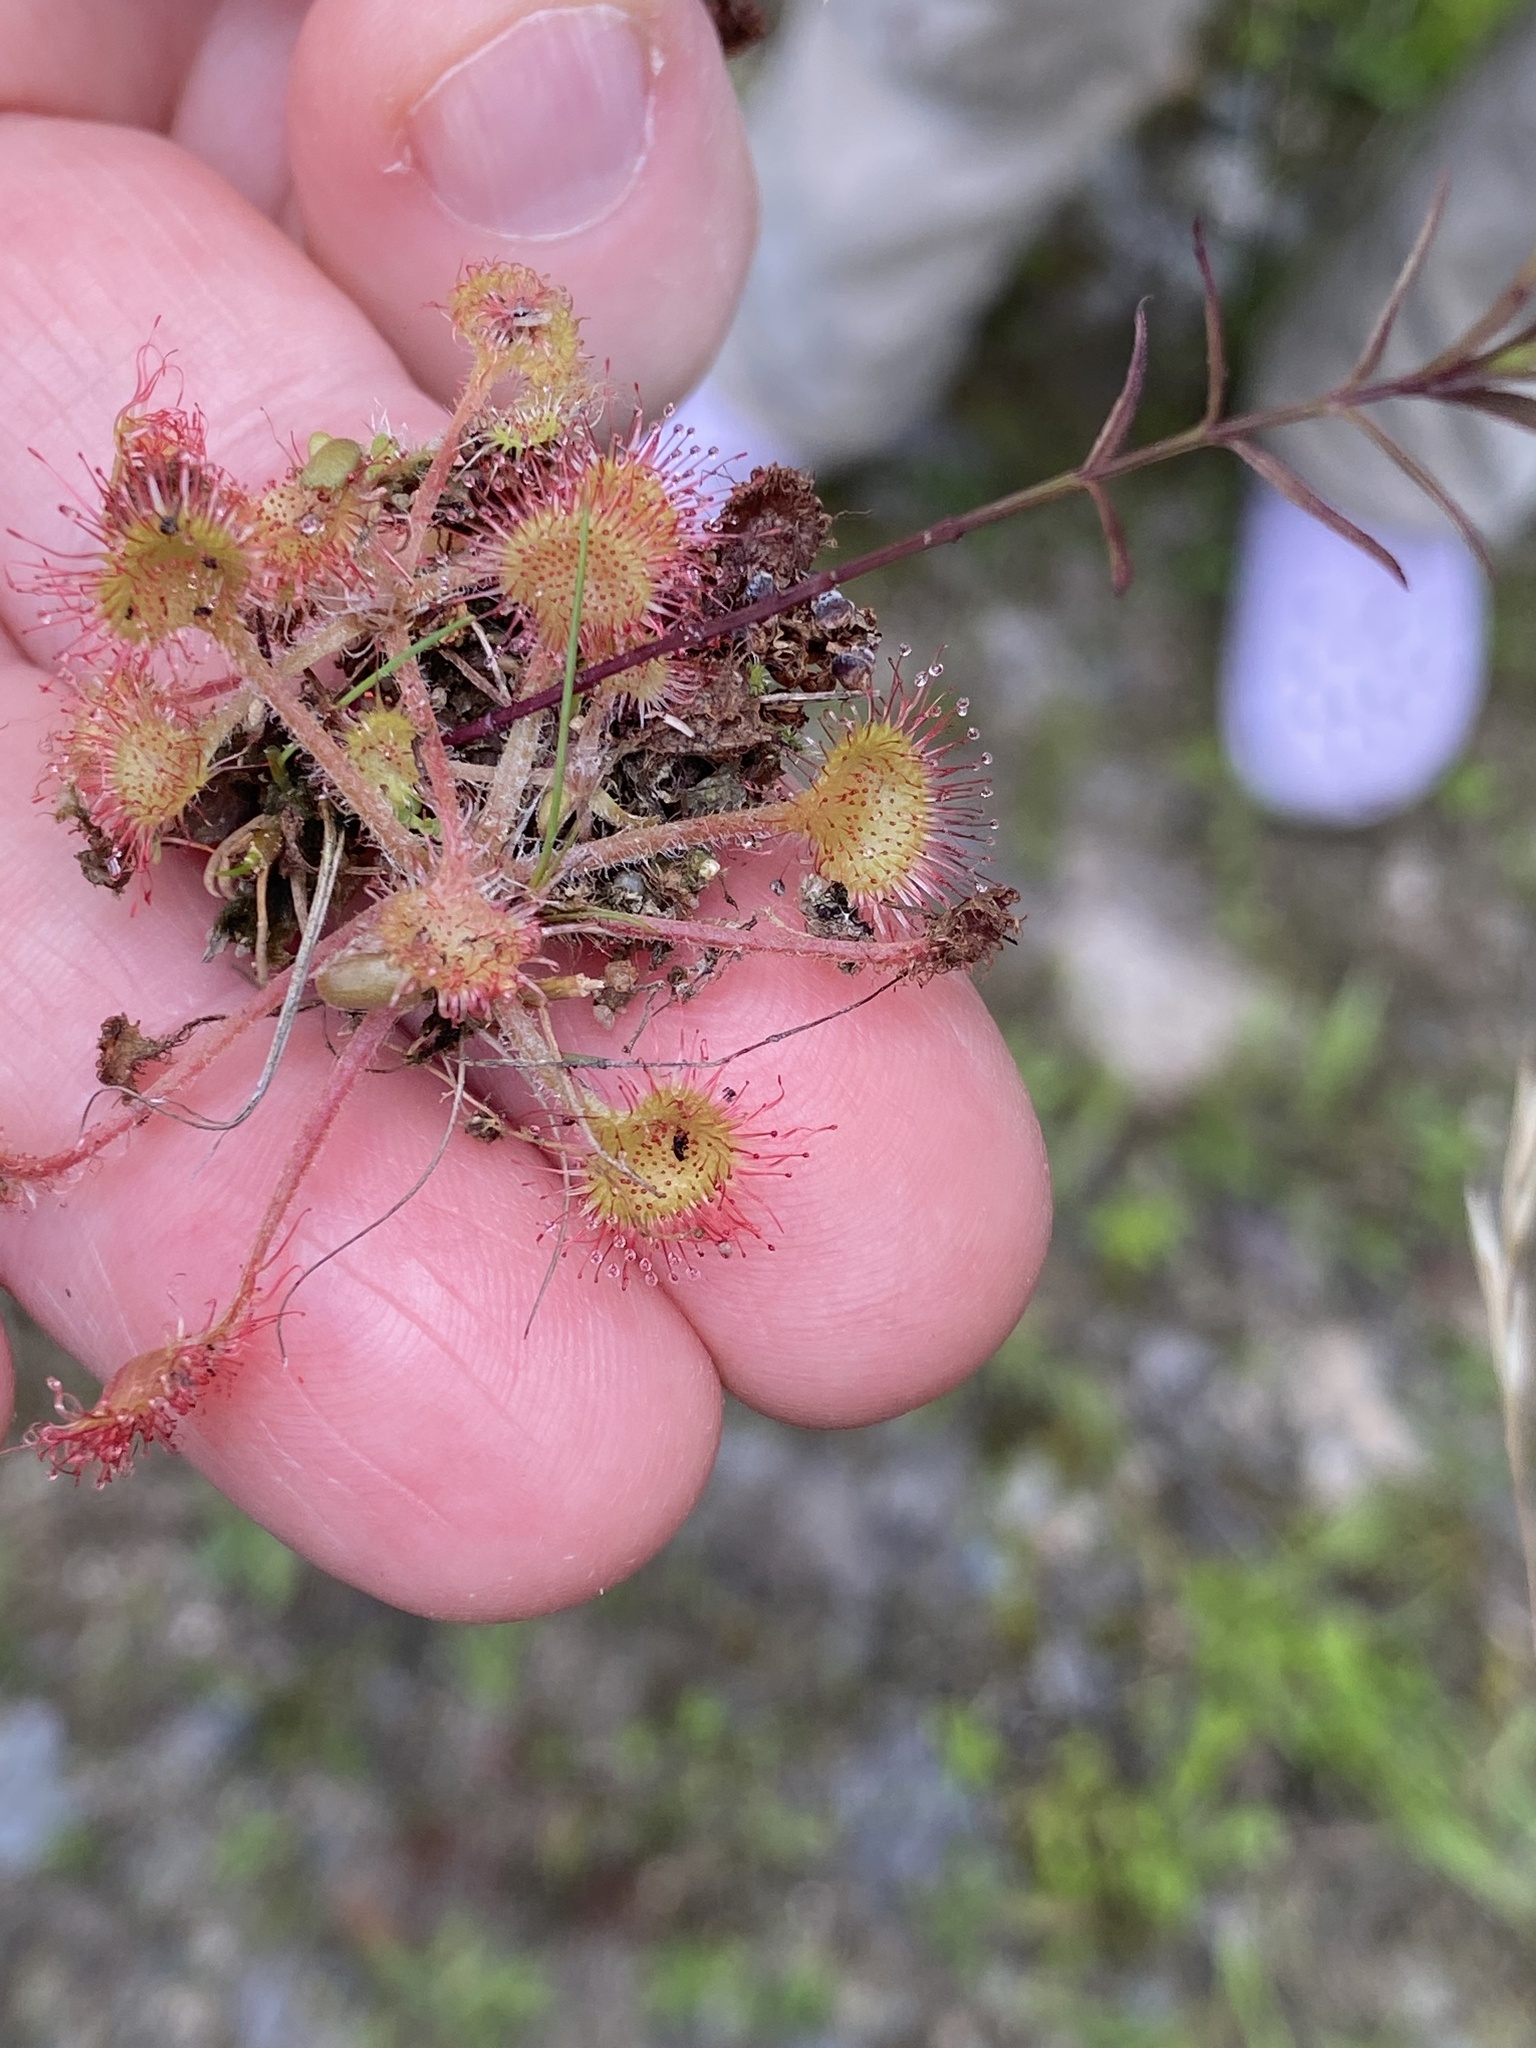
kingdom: Plantae
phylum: Tracheophyta
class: Magnoliopsida
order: Caryophyllales
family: Droseraceae
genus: Drosera
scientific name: Drosera rotundifolia
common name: Round-leaved sundew
